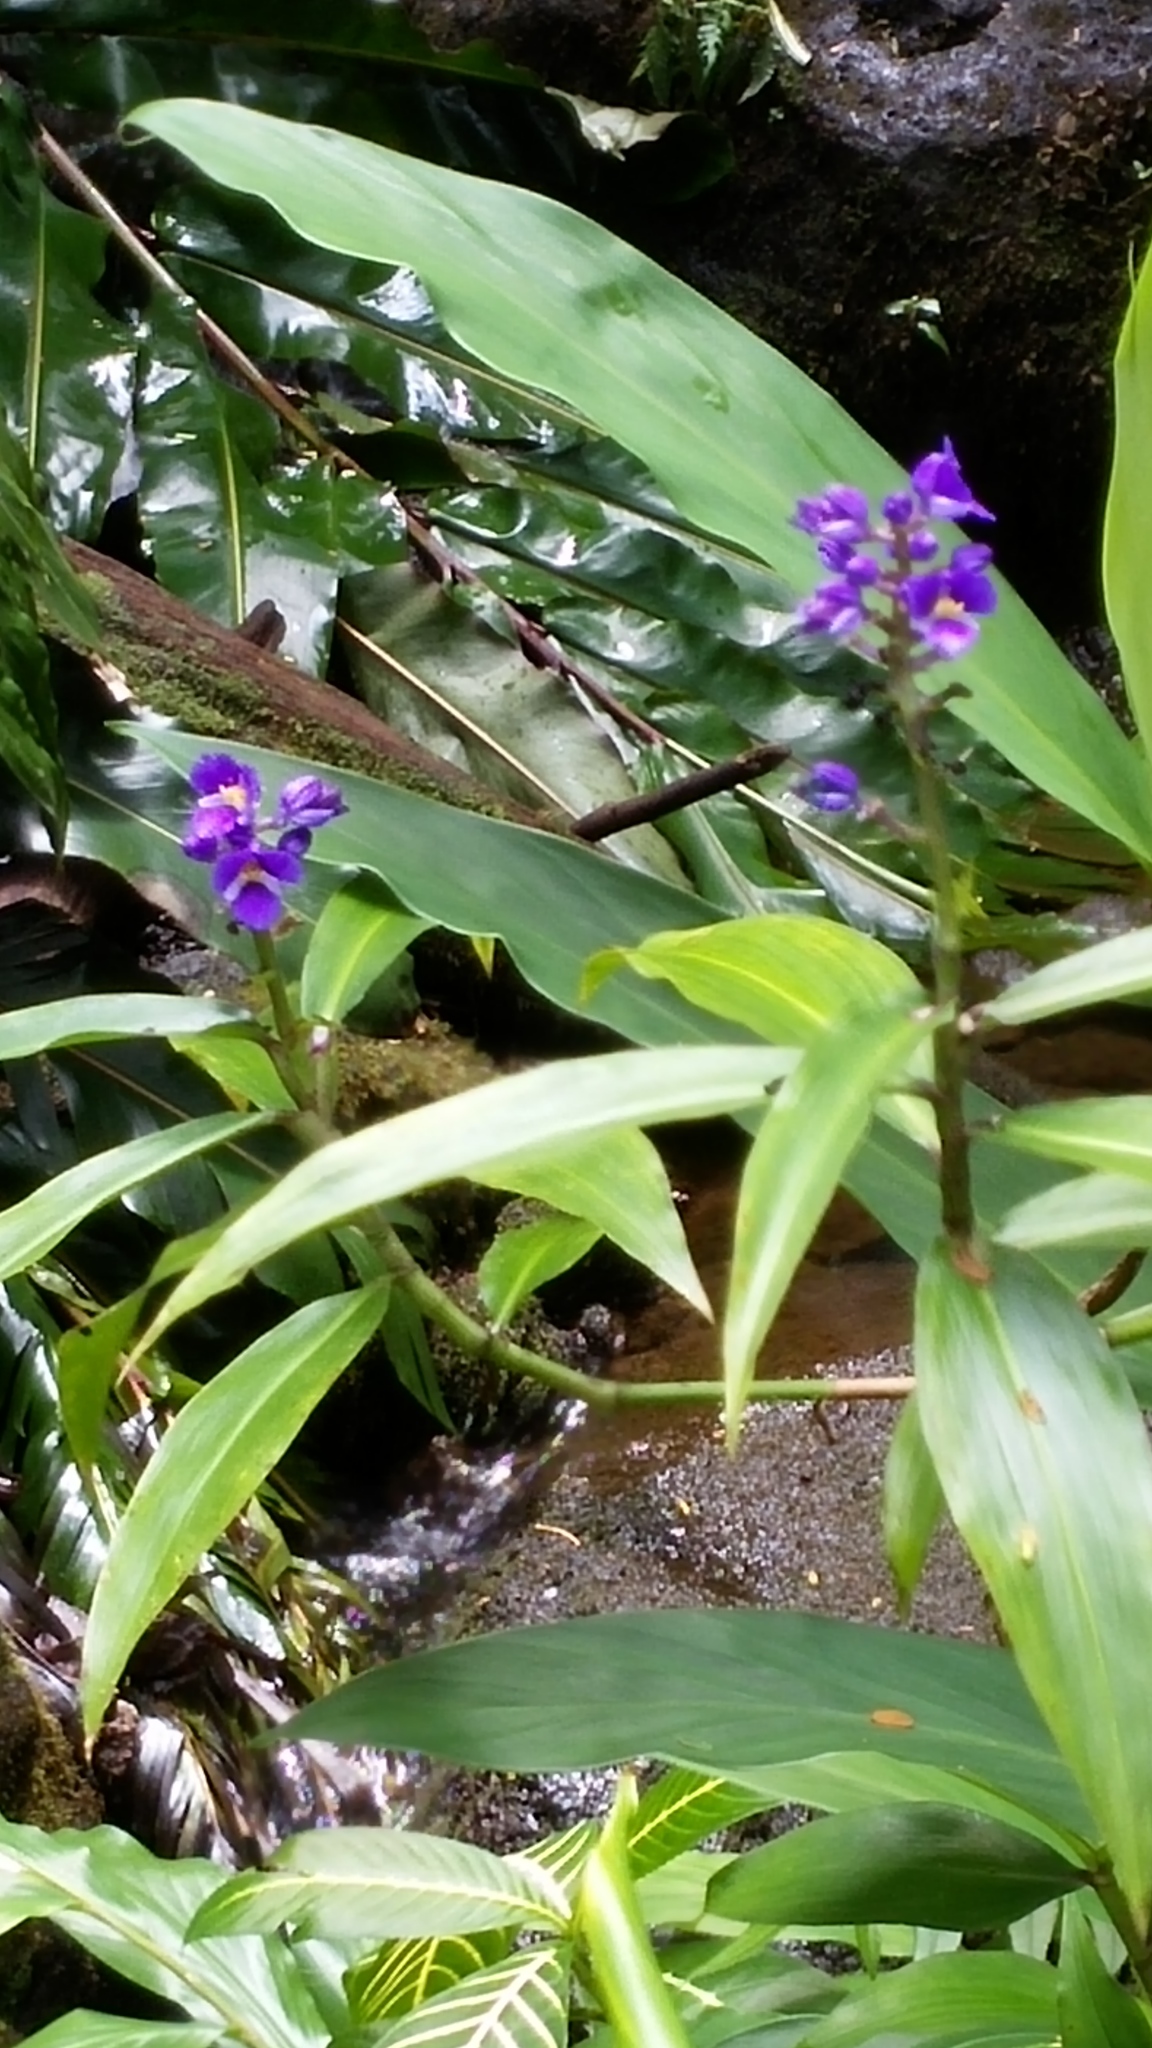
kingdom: Plantae
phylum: Tracheophyta
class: Liliopsida
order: Commelinales
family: Commelinaceae
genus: Dichorisandra
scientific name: Dichorisandra thyrsiflora
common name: Blue-ginger
